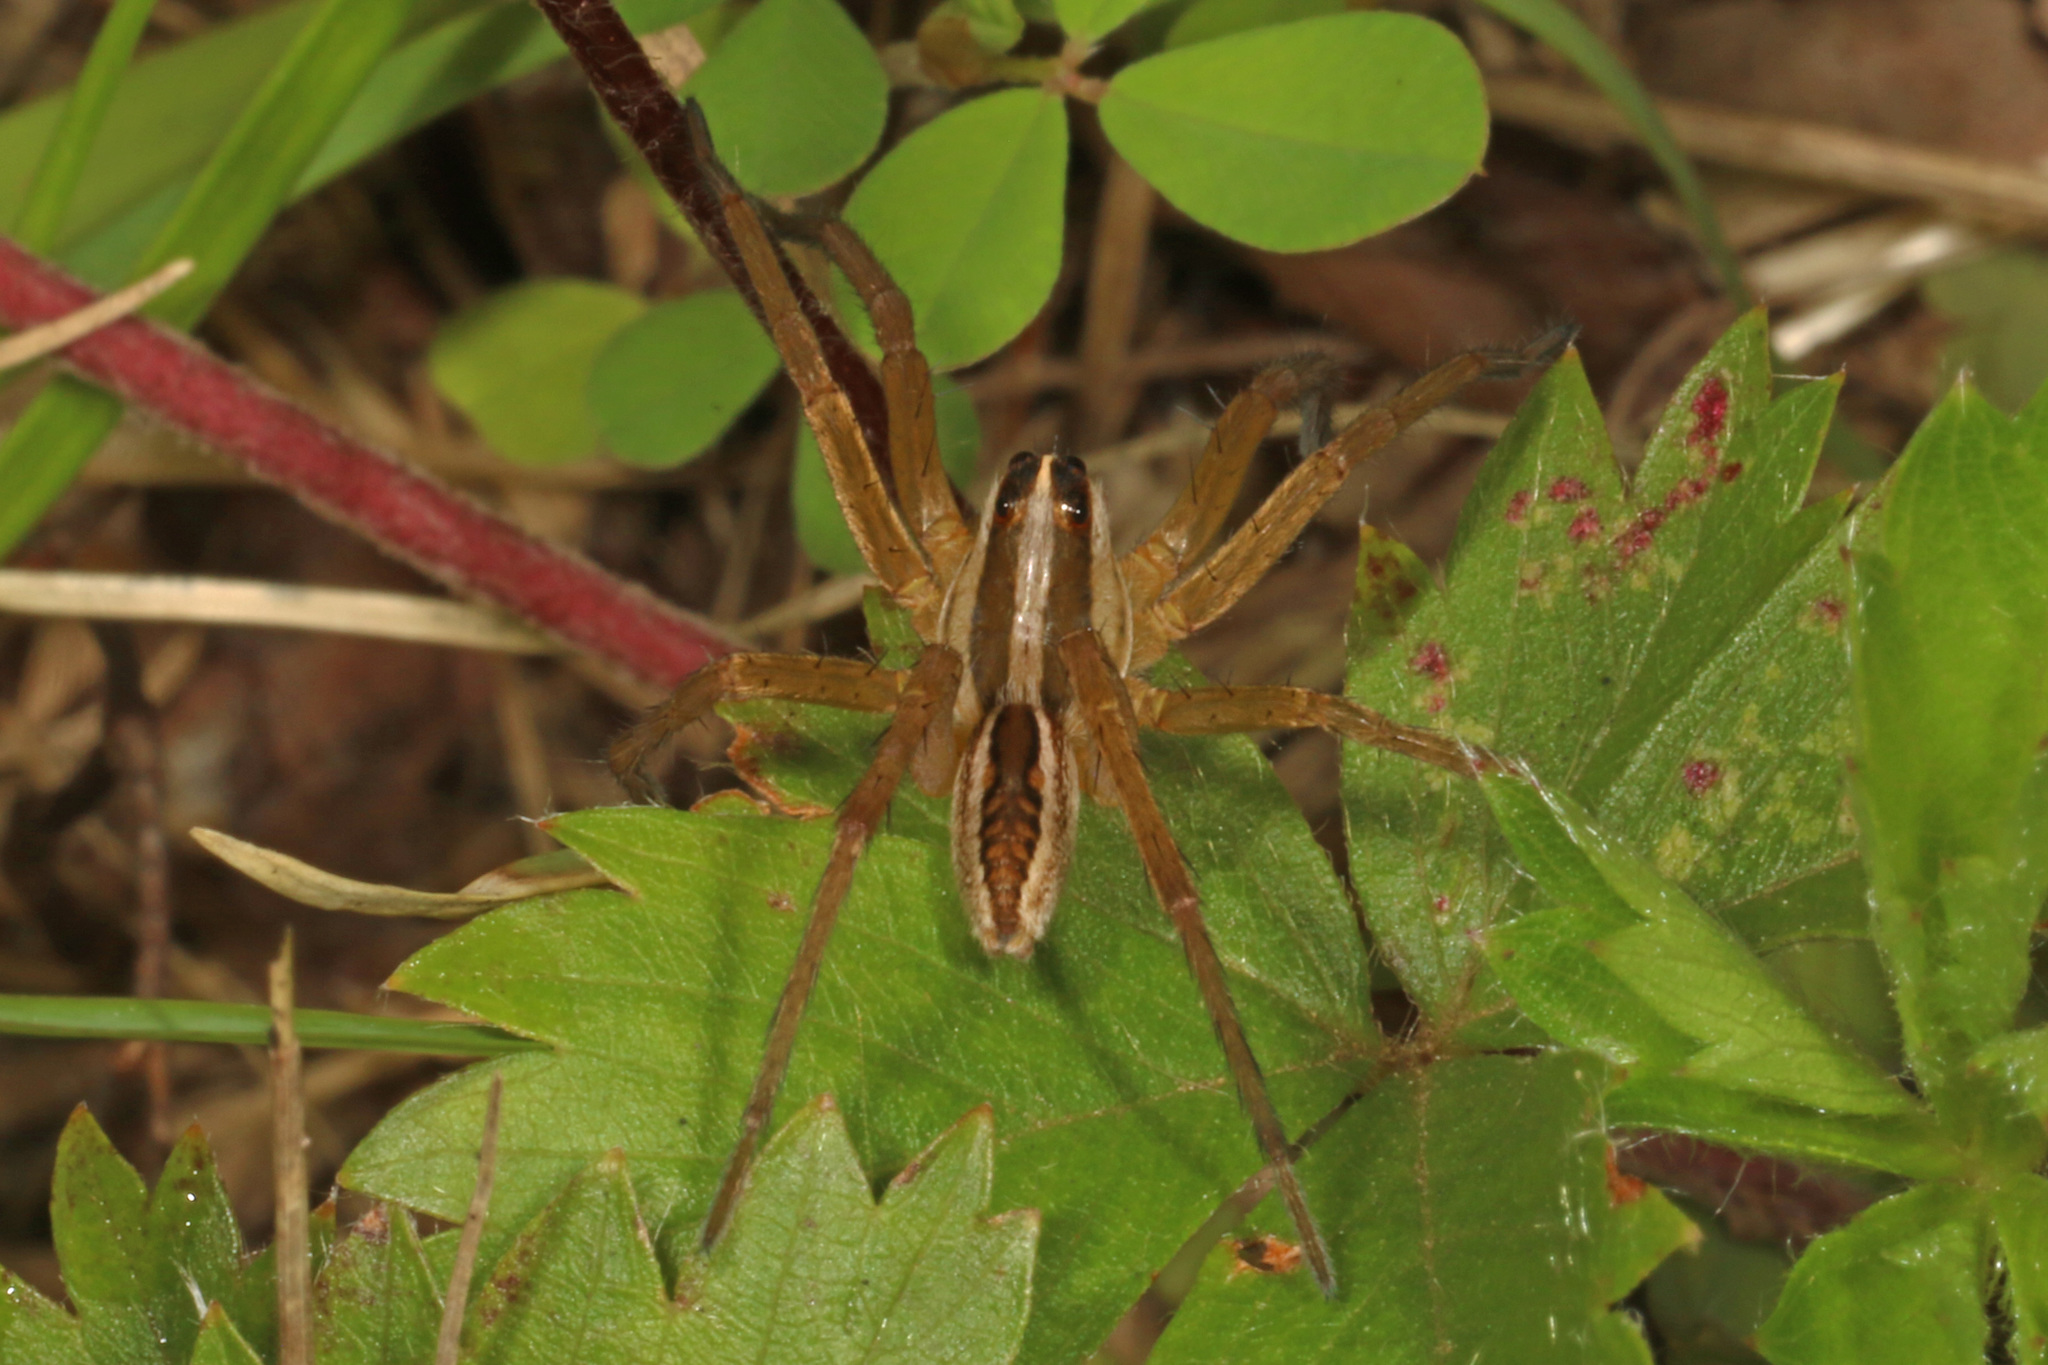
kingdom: Animalia
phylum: Arthropoda
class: Arachnida
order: Araneae
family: Lycosidae
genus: Rabidosa
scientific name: Rabidosa rabida
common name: Rabid wolf spider
